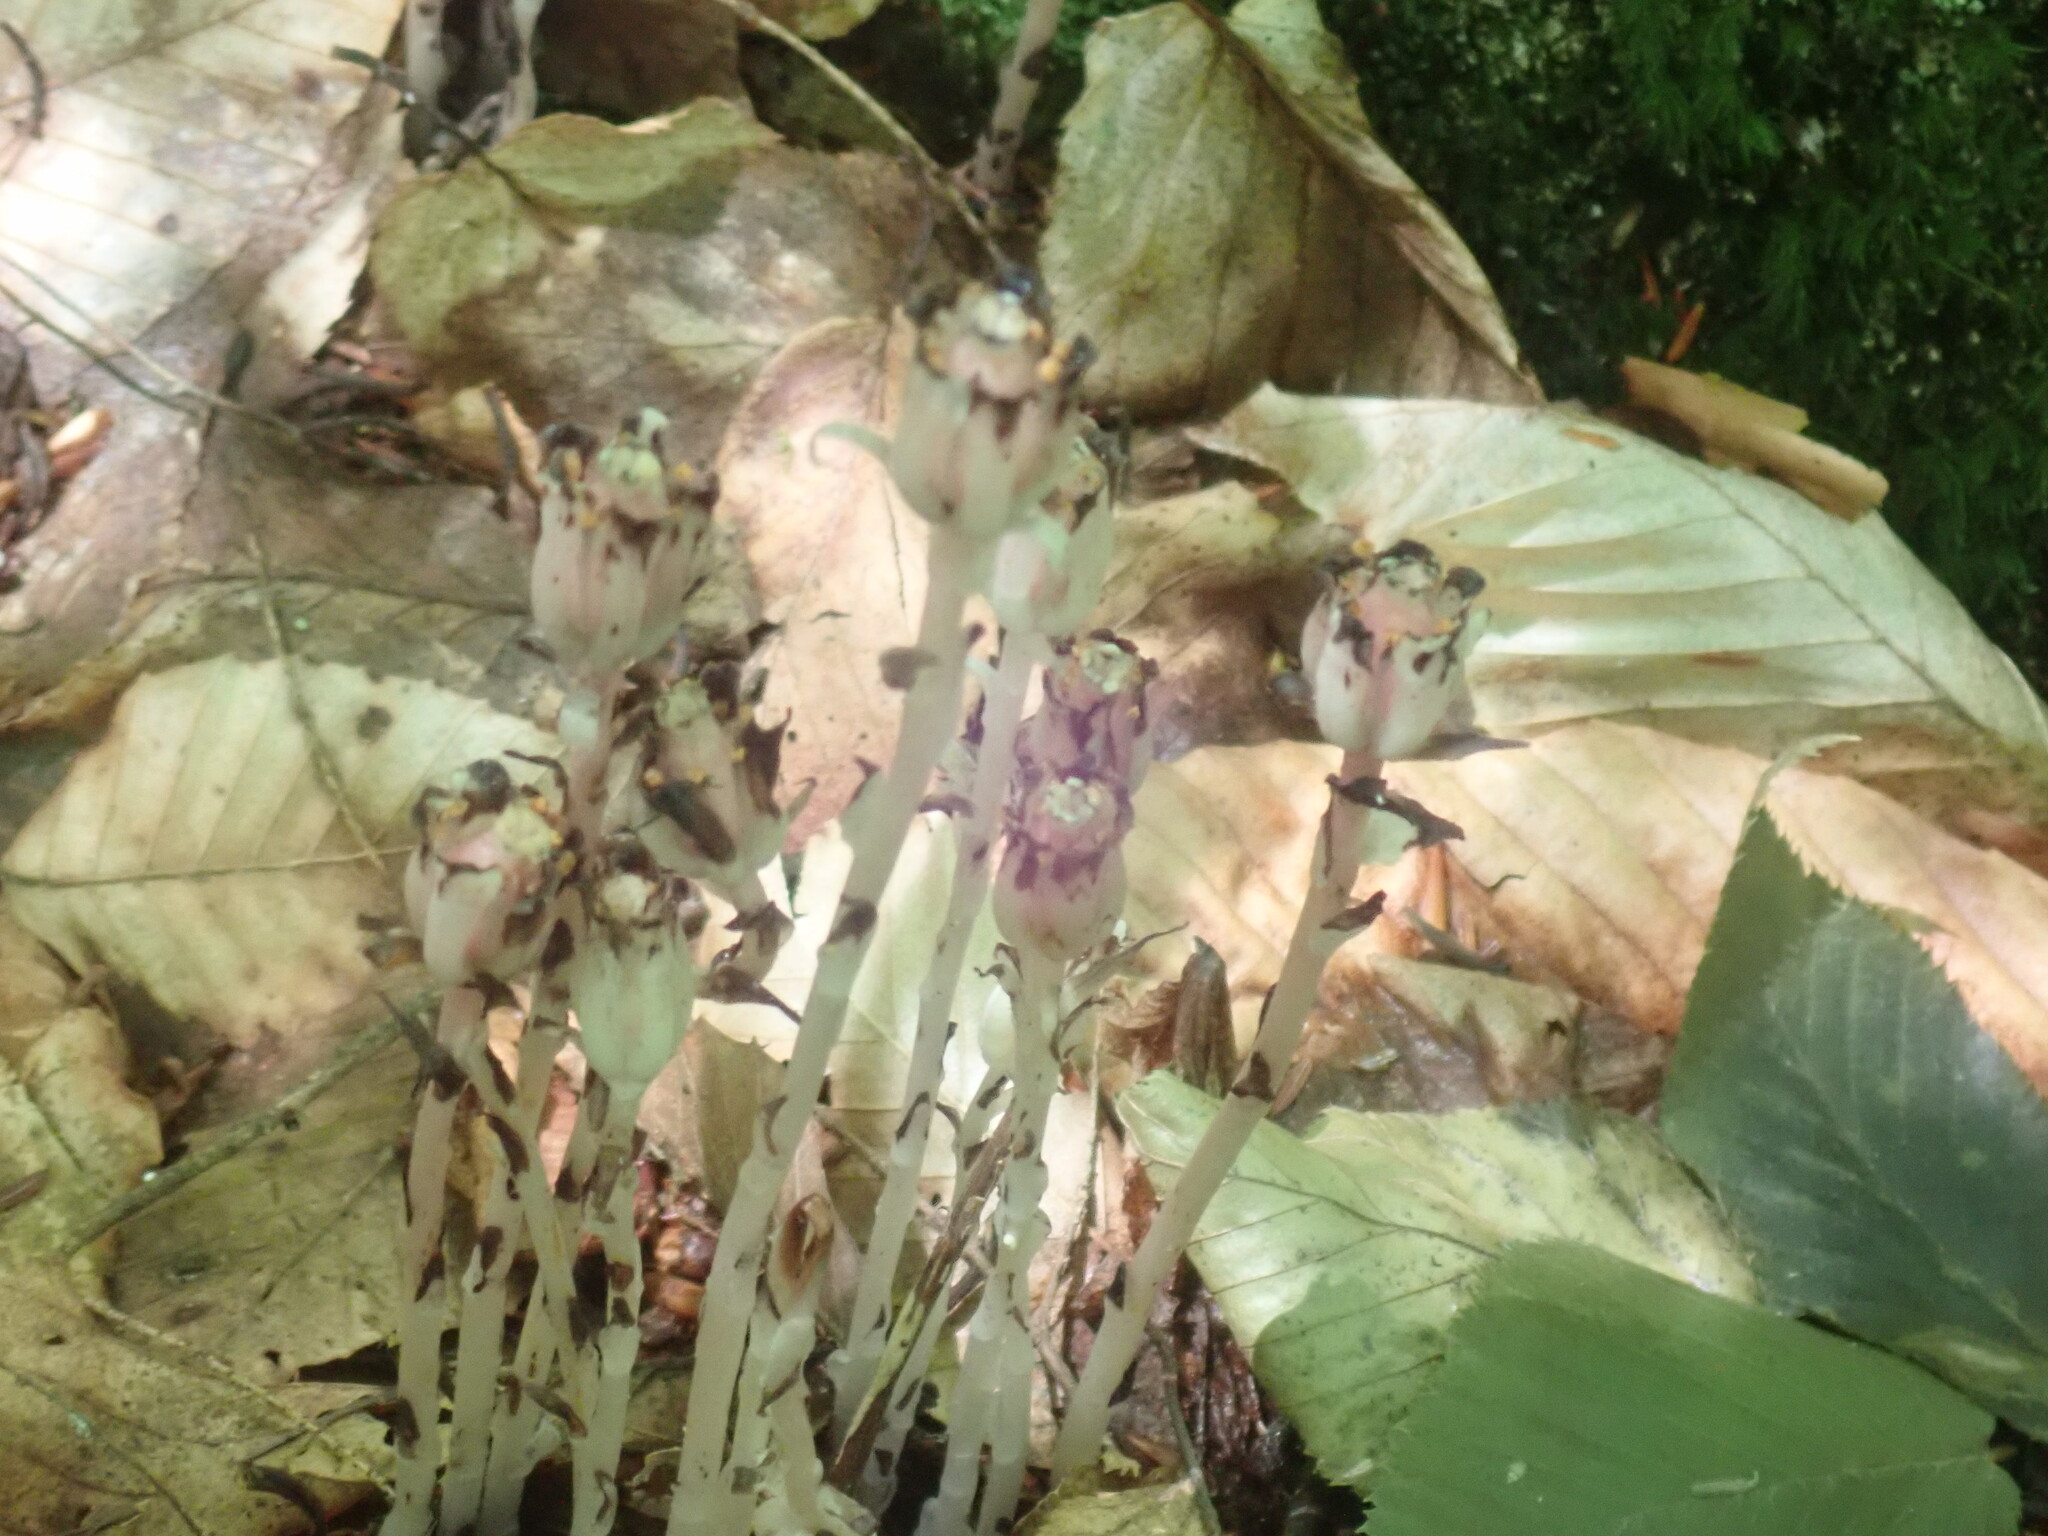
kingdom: Plantae
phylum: Tracheophyta
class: Magnoliopsida
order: Ericales
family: Ericaceae
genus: Monotropa
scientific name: Monotropa uniflora
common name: Convulsion root
